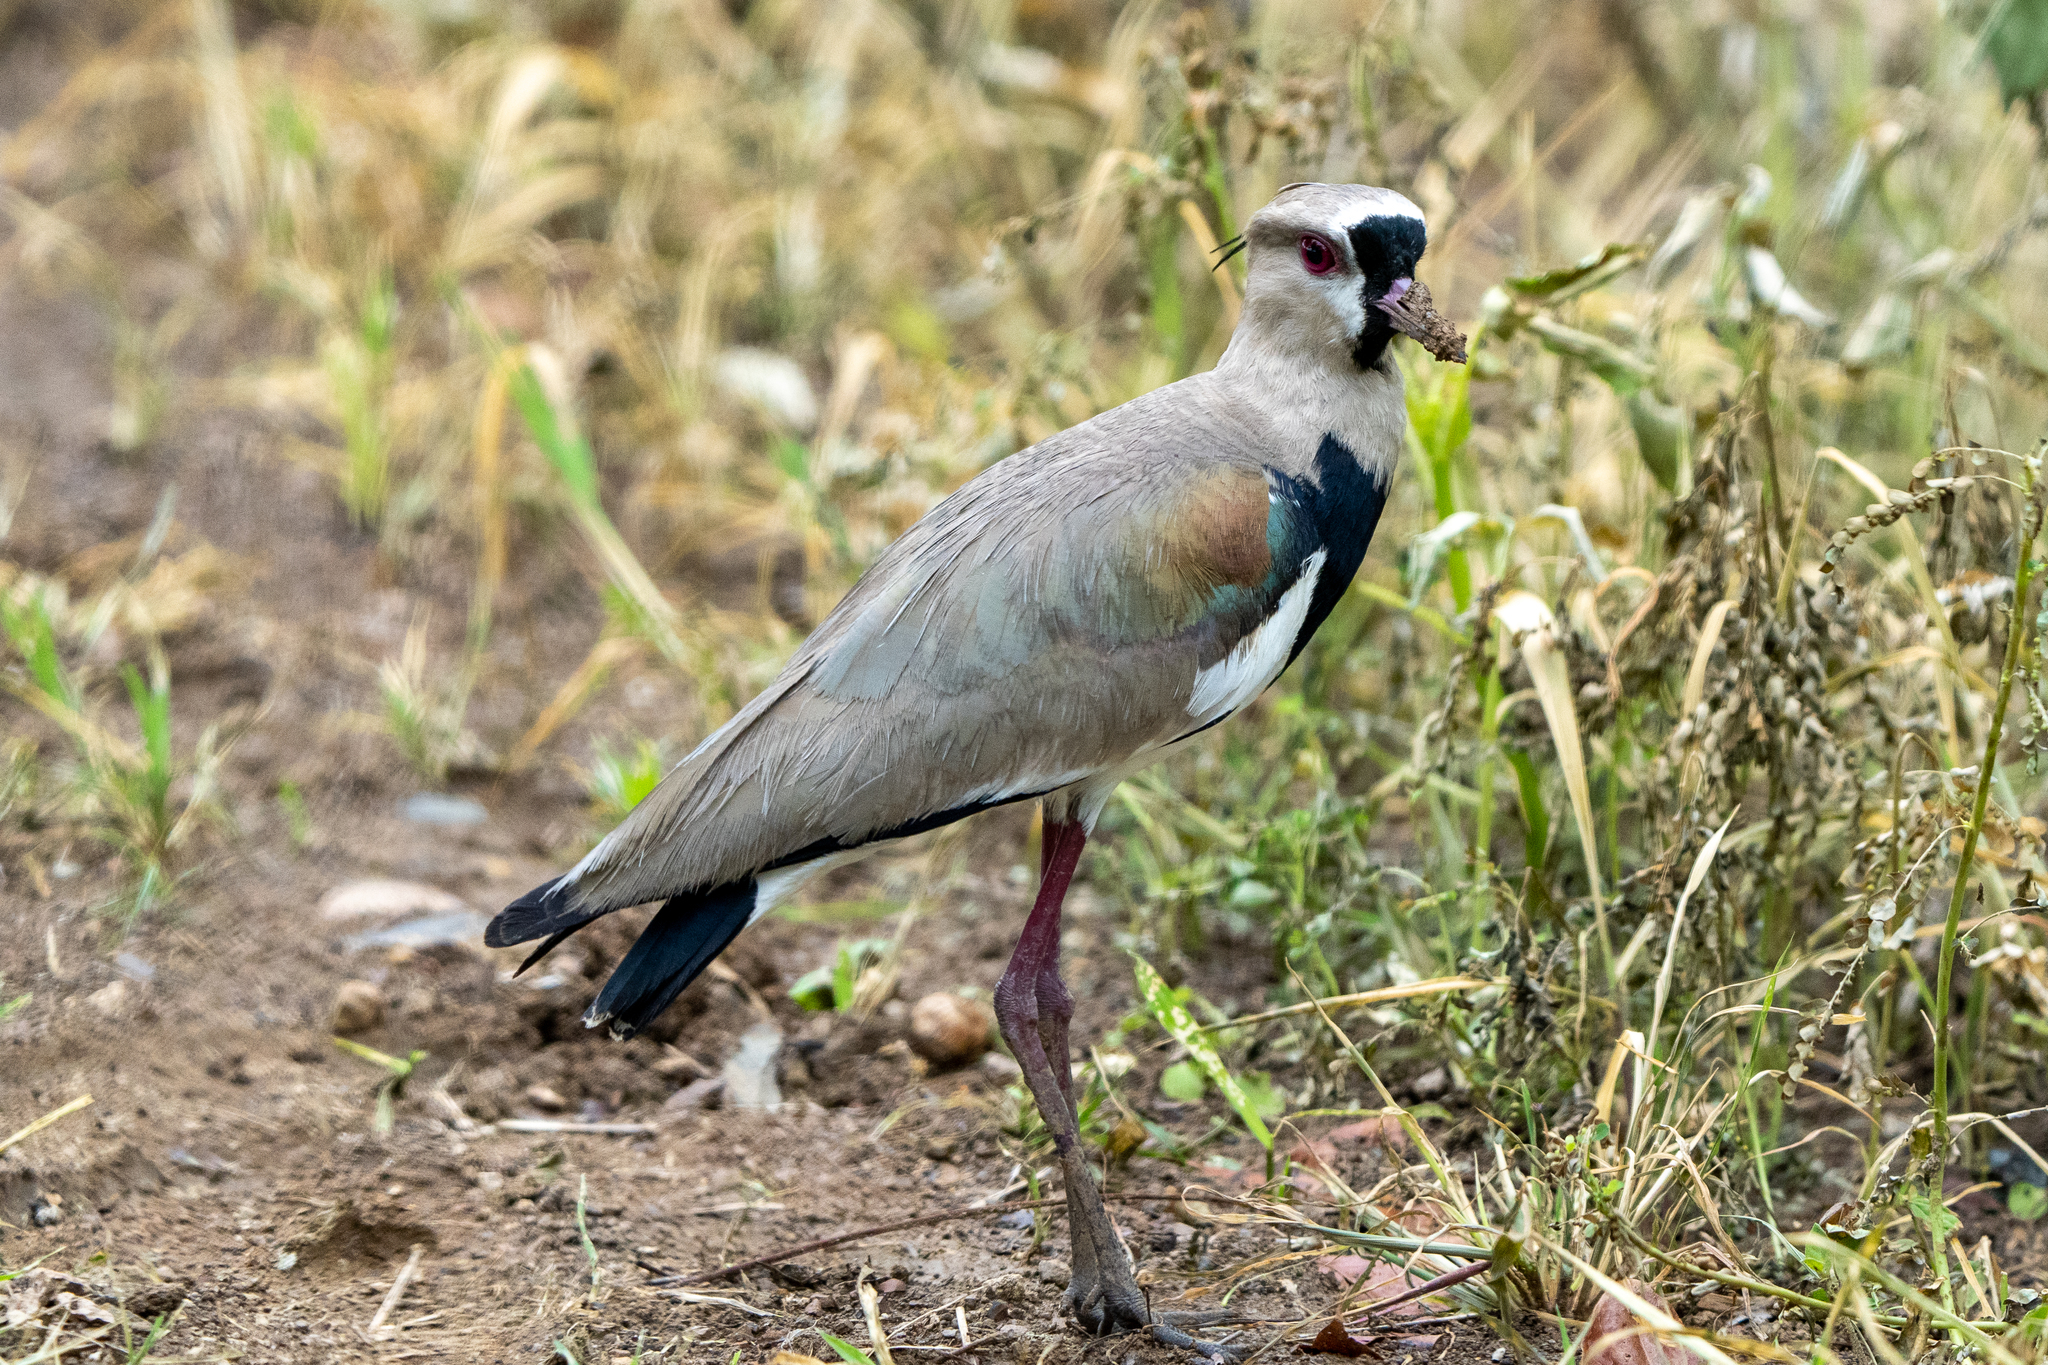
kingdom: Animalia
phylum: Chordata
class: Aves
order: Charadriiformes
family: Charadriidae
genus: Vanellus
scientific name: Vanellus chilensis
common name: Southern lapwing
